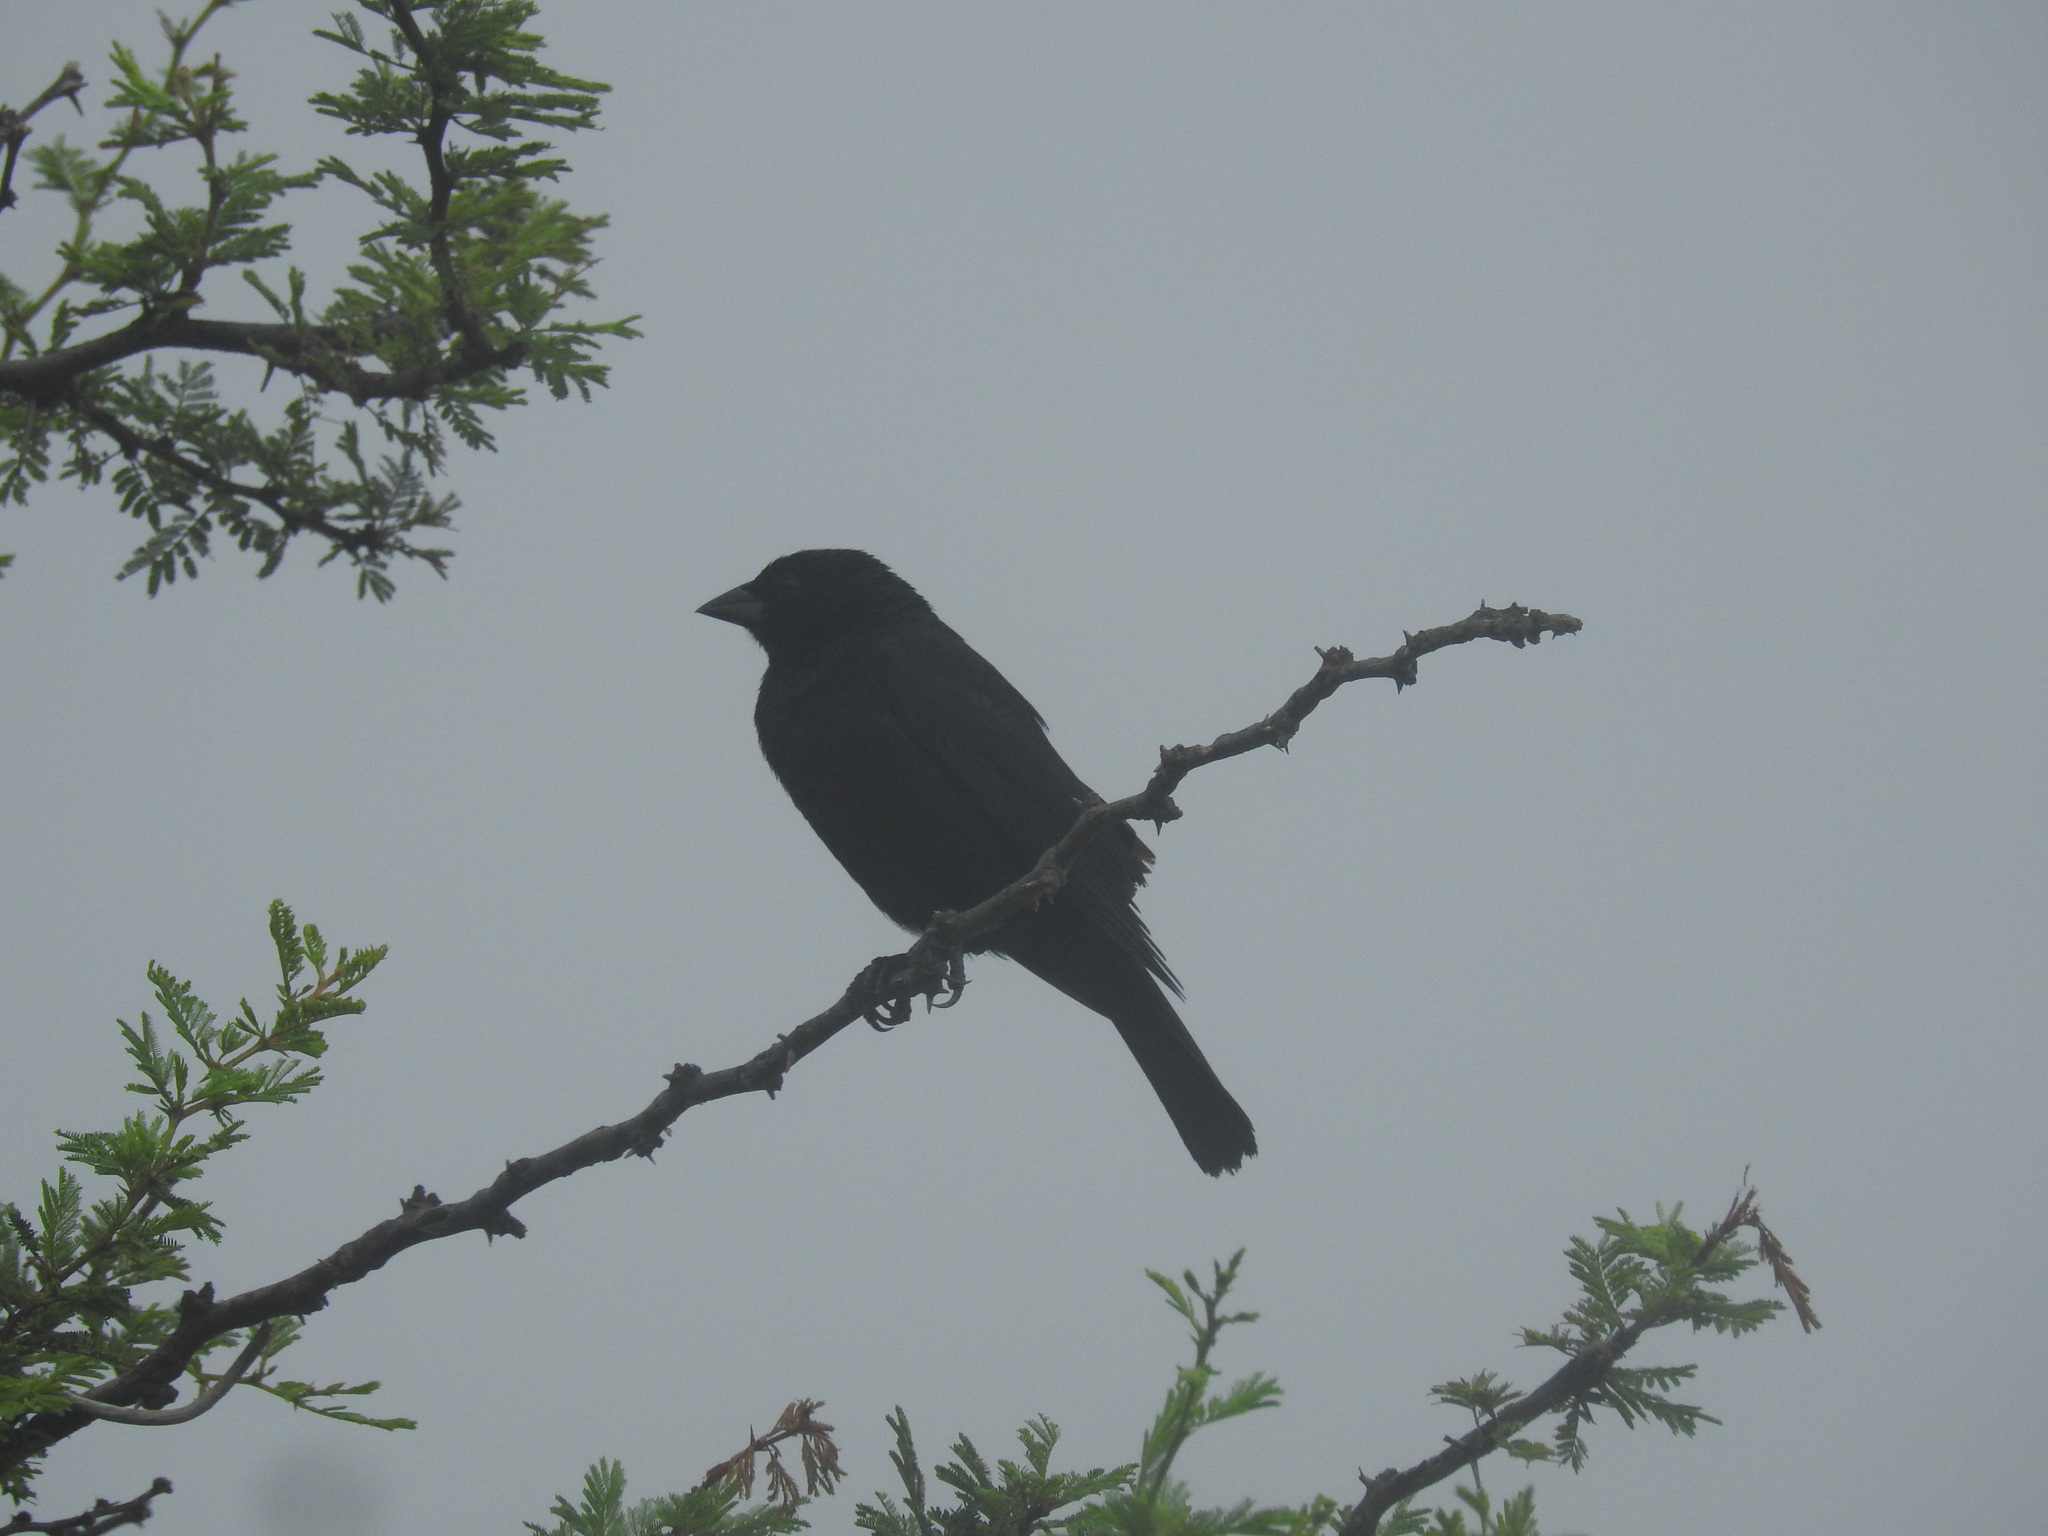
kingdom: Animalia
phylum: Chordata
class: Aves
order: Passeriformes
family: Icteridae
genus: Molothrus
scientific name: Molothrus rufoaxillaris
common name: Screaming cowbird
